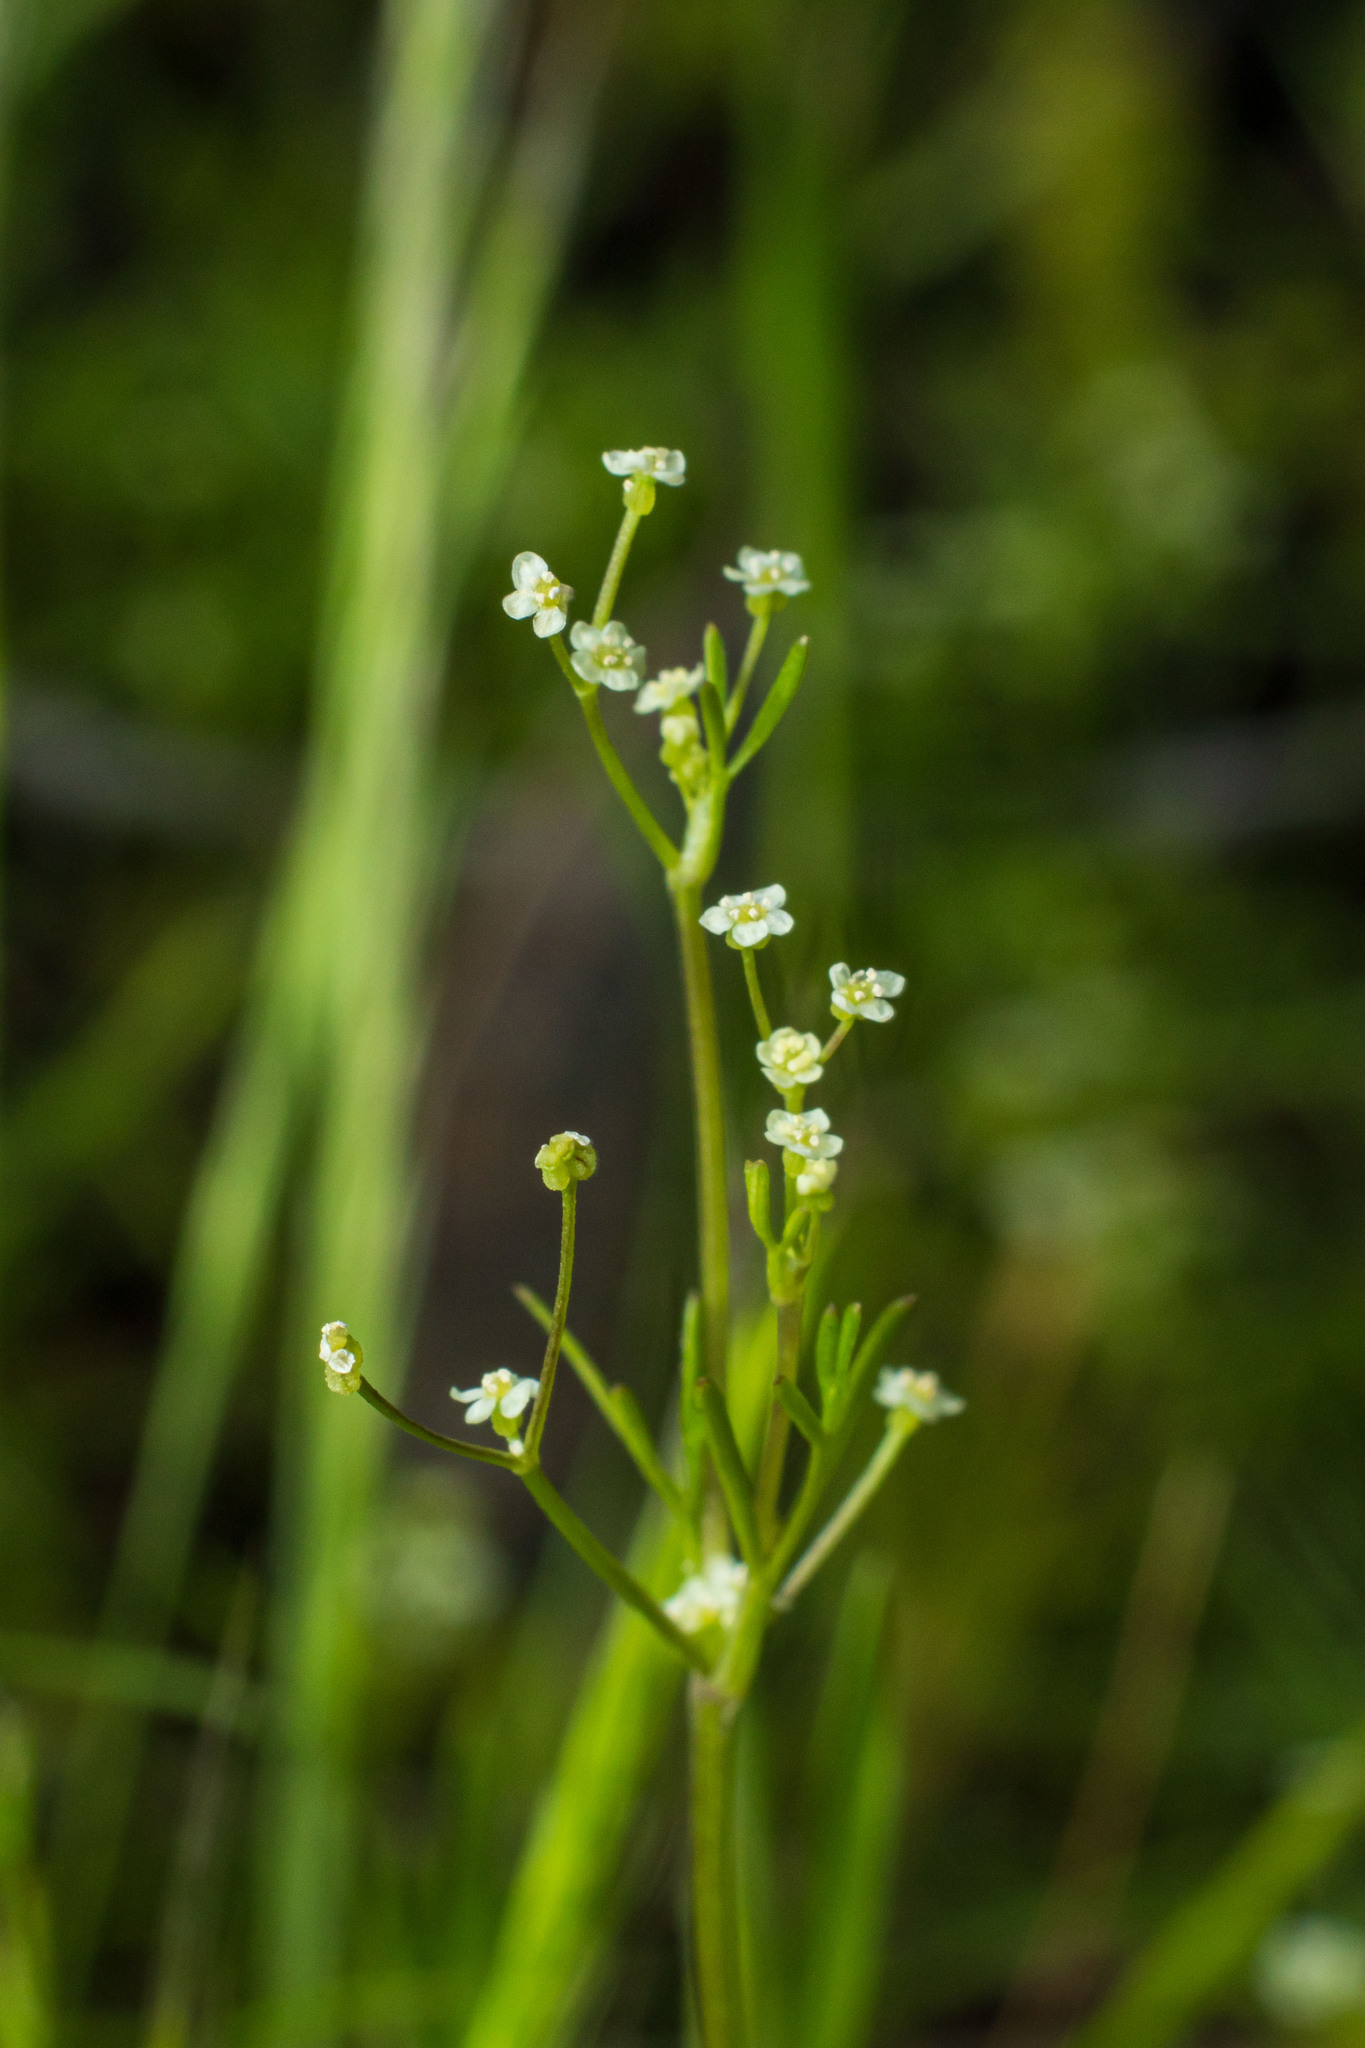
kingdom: Plantae
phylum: Tracheophyta
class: Magnoliopsida
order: Apiales
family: Apiaceae
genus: Apiastrum
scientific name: Apiastrum angustifolium
